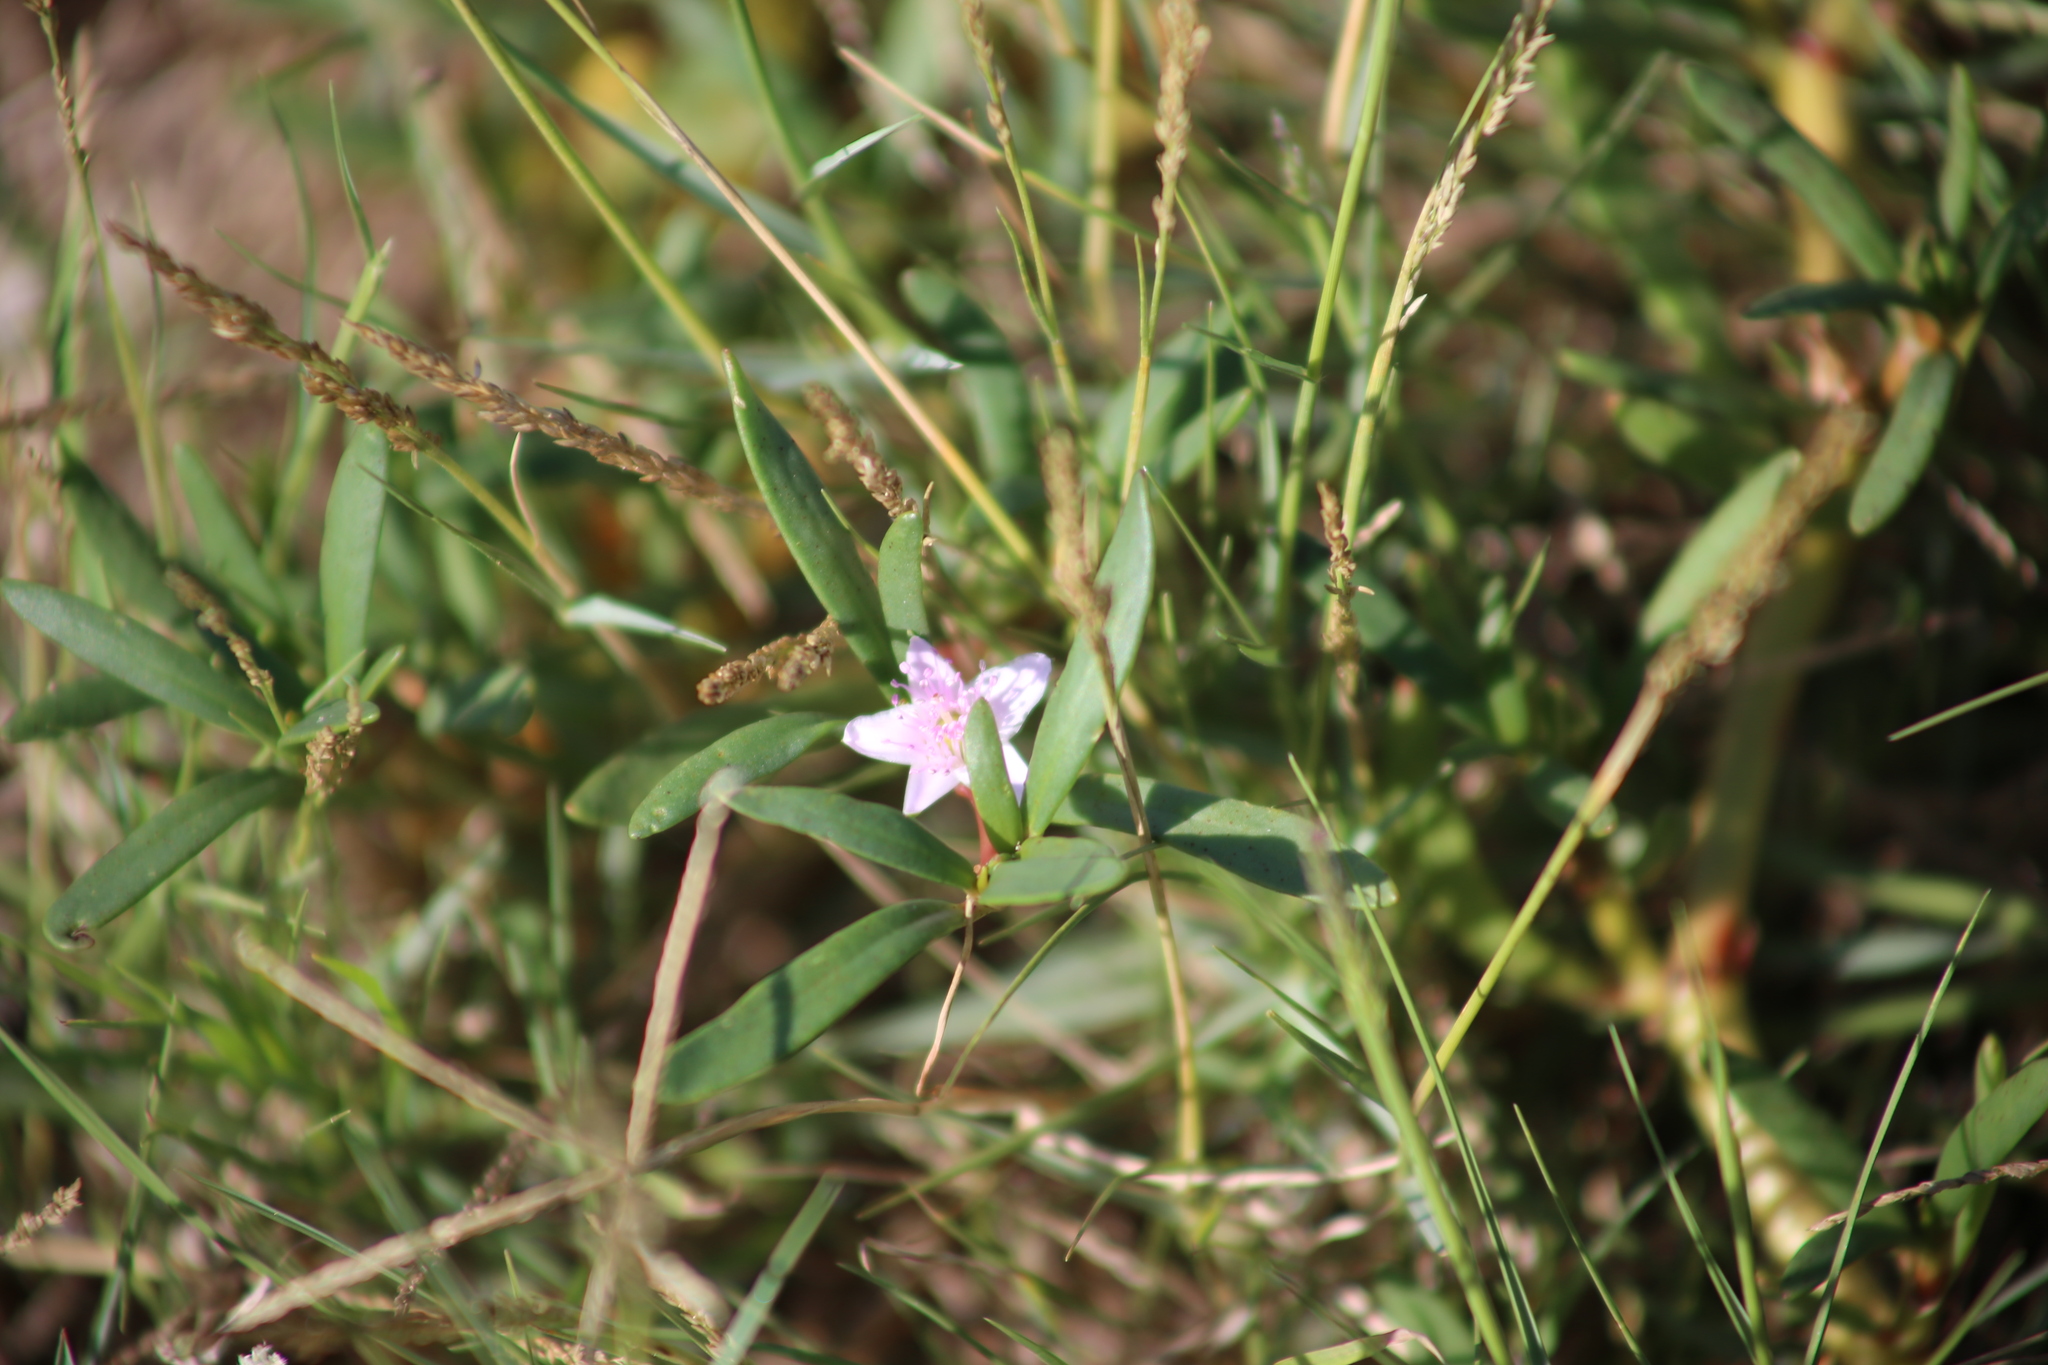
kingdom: Plantae
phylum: Tracheophyta
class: Magnoliopsida
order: Caryophyllales
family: Aizoaceae
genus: Sesuvium
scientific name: Sesuvium portulacastrum
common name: Sea-purslane
